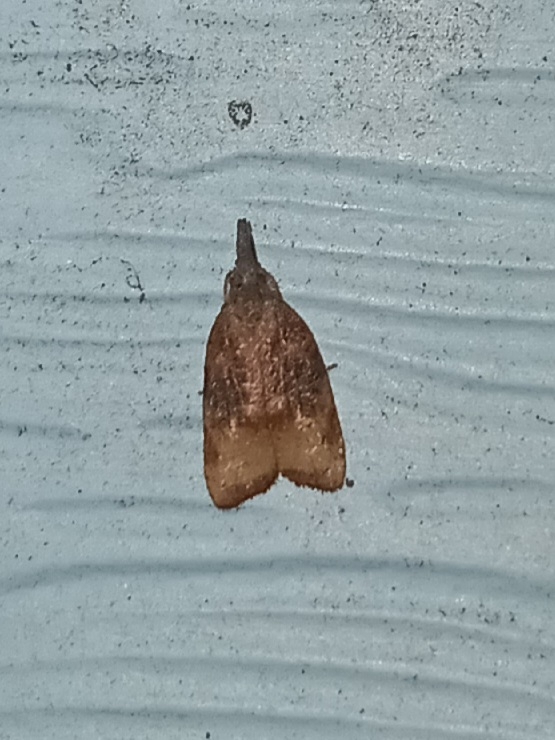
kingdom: Animalia
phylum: Arthropoda
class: Insecta
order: Lepidoptera
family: Tortricidae
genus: Platynota
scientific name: Platynota stultana
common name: Omnivorous leafroller
